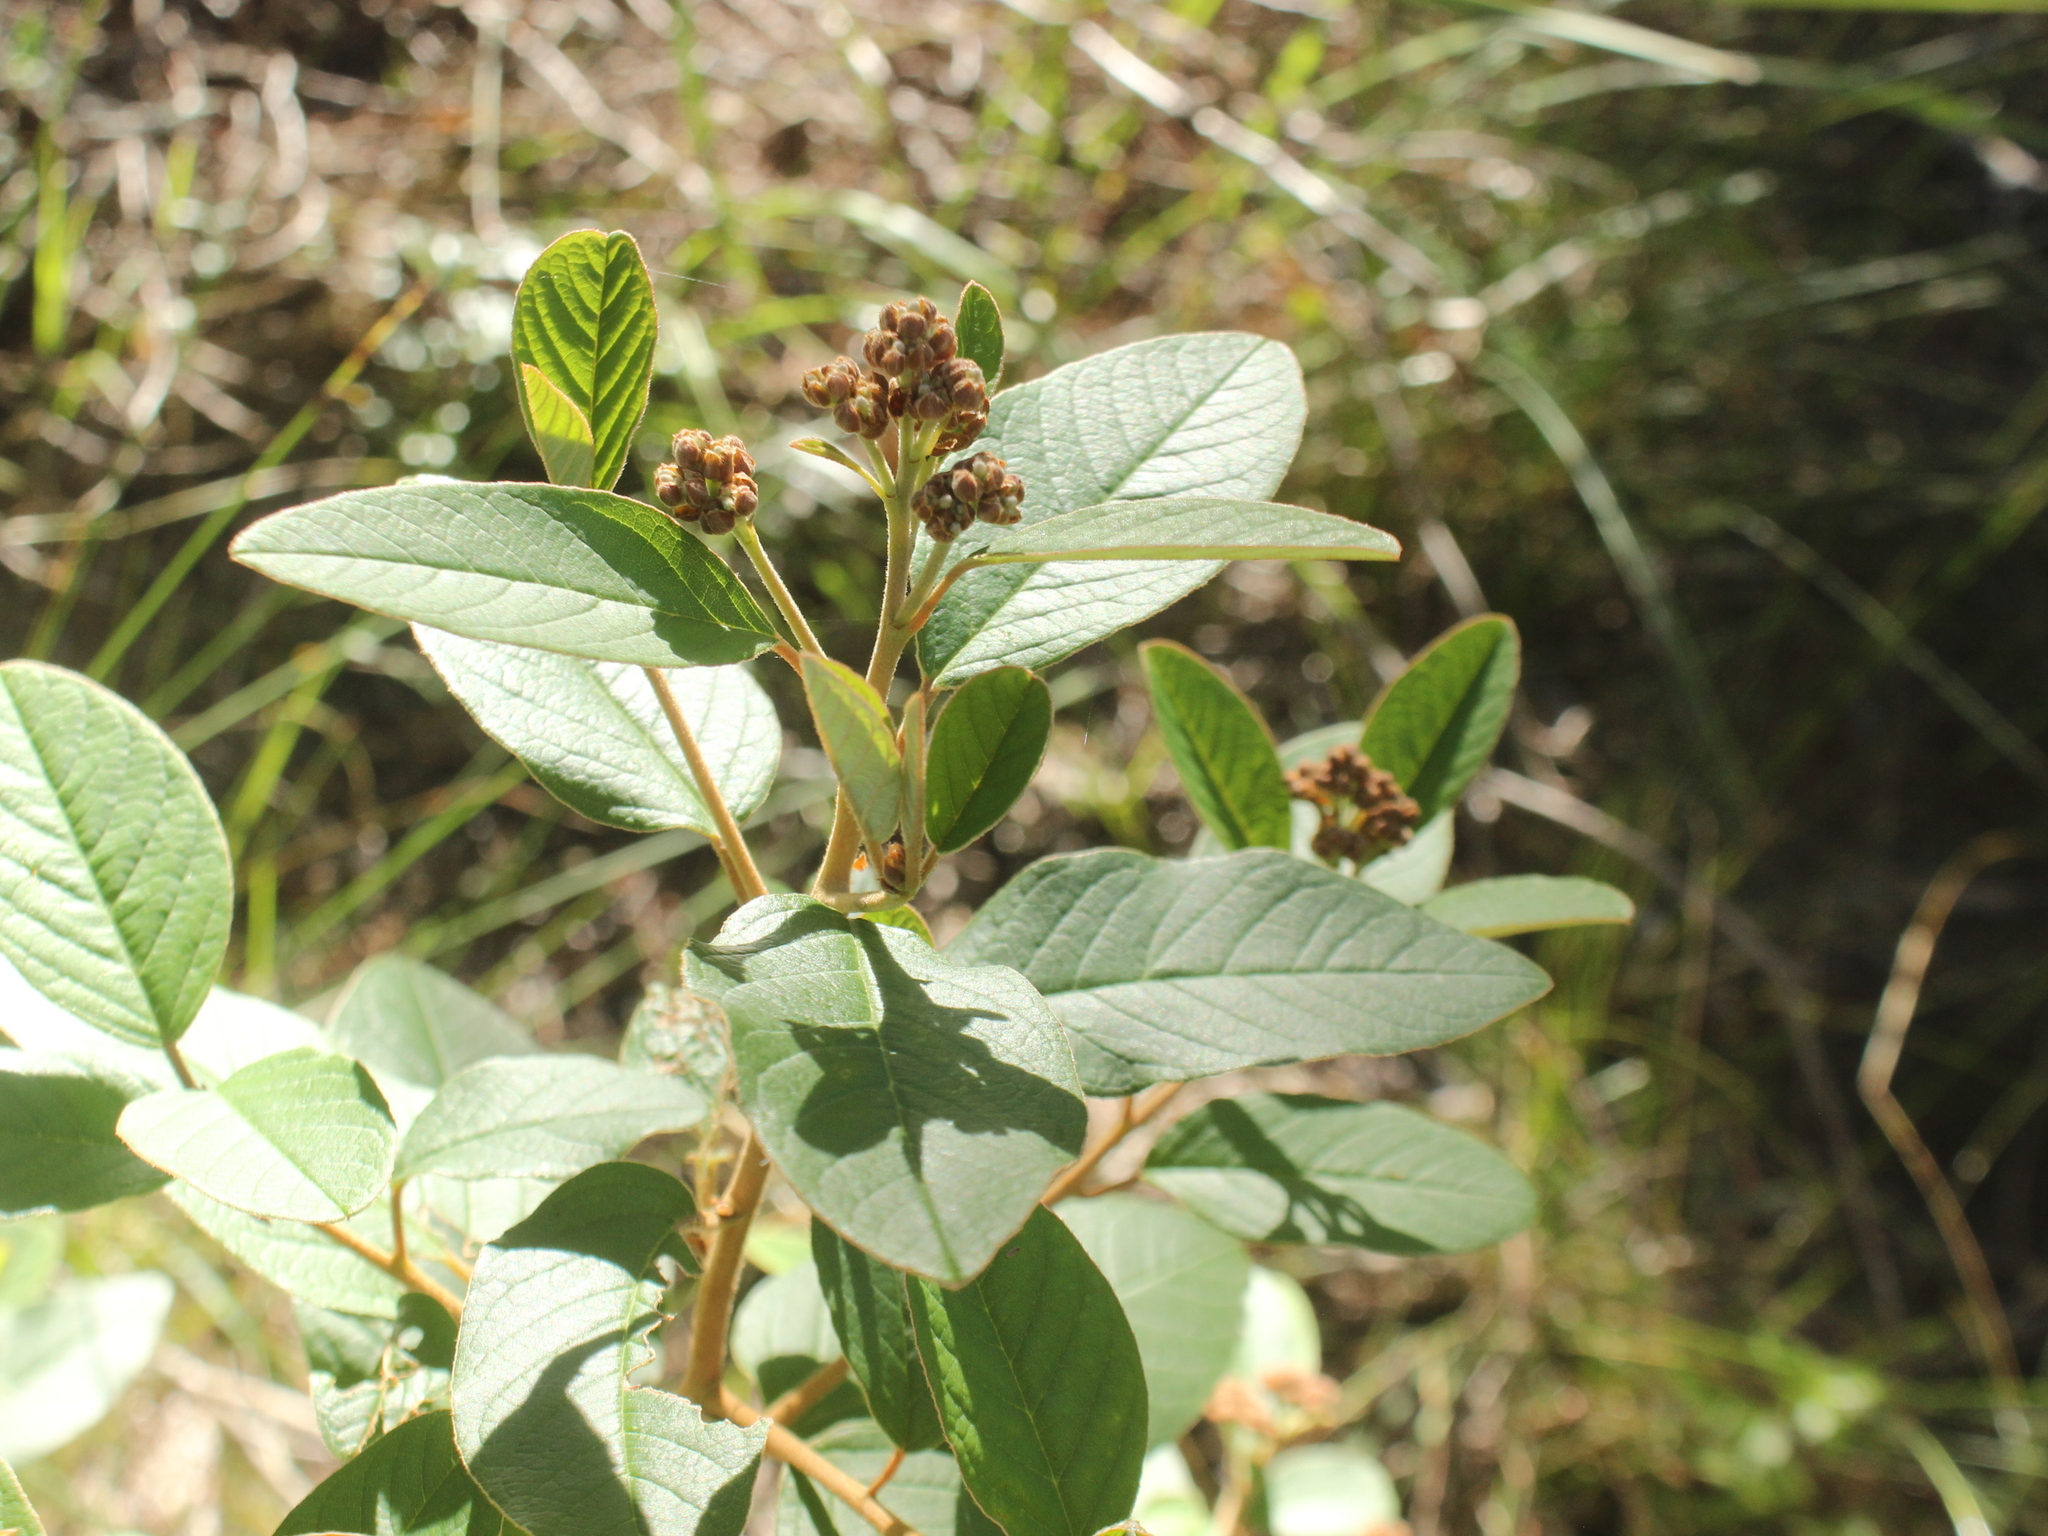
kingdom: Plantae
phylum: Tracheophyta
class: Magnoliopsida
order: Rosales
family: Rhamnaceae
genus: Pomaderris
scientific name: Pomaderris kumeraho
